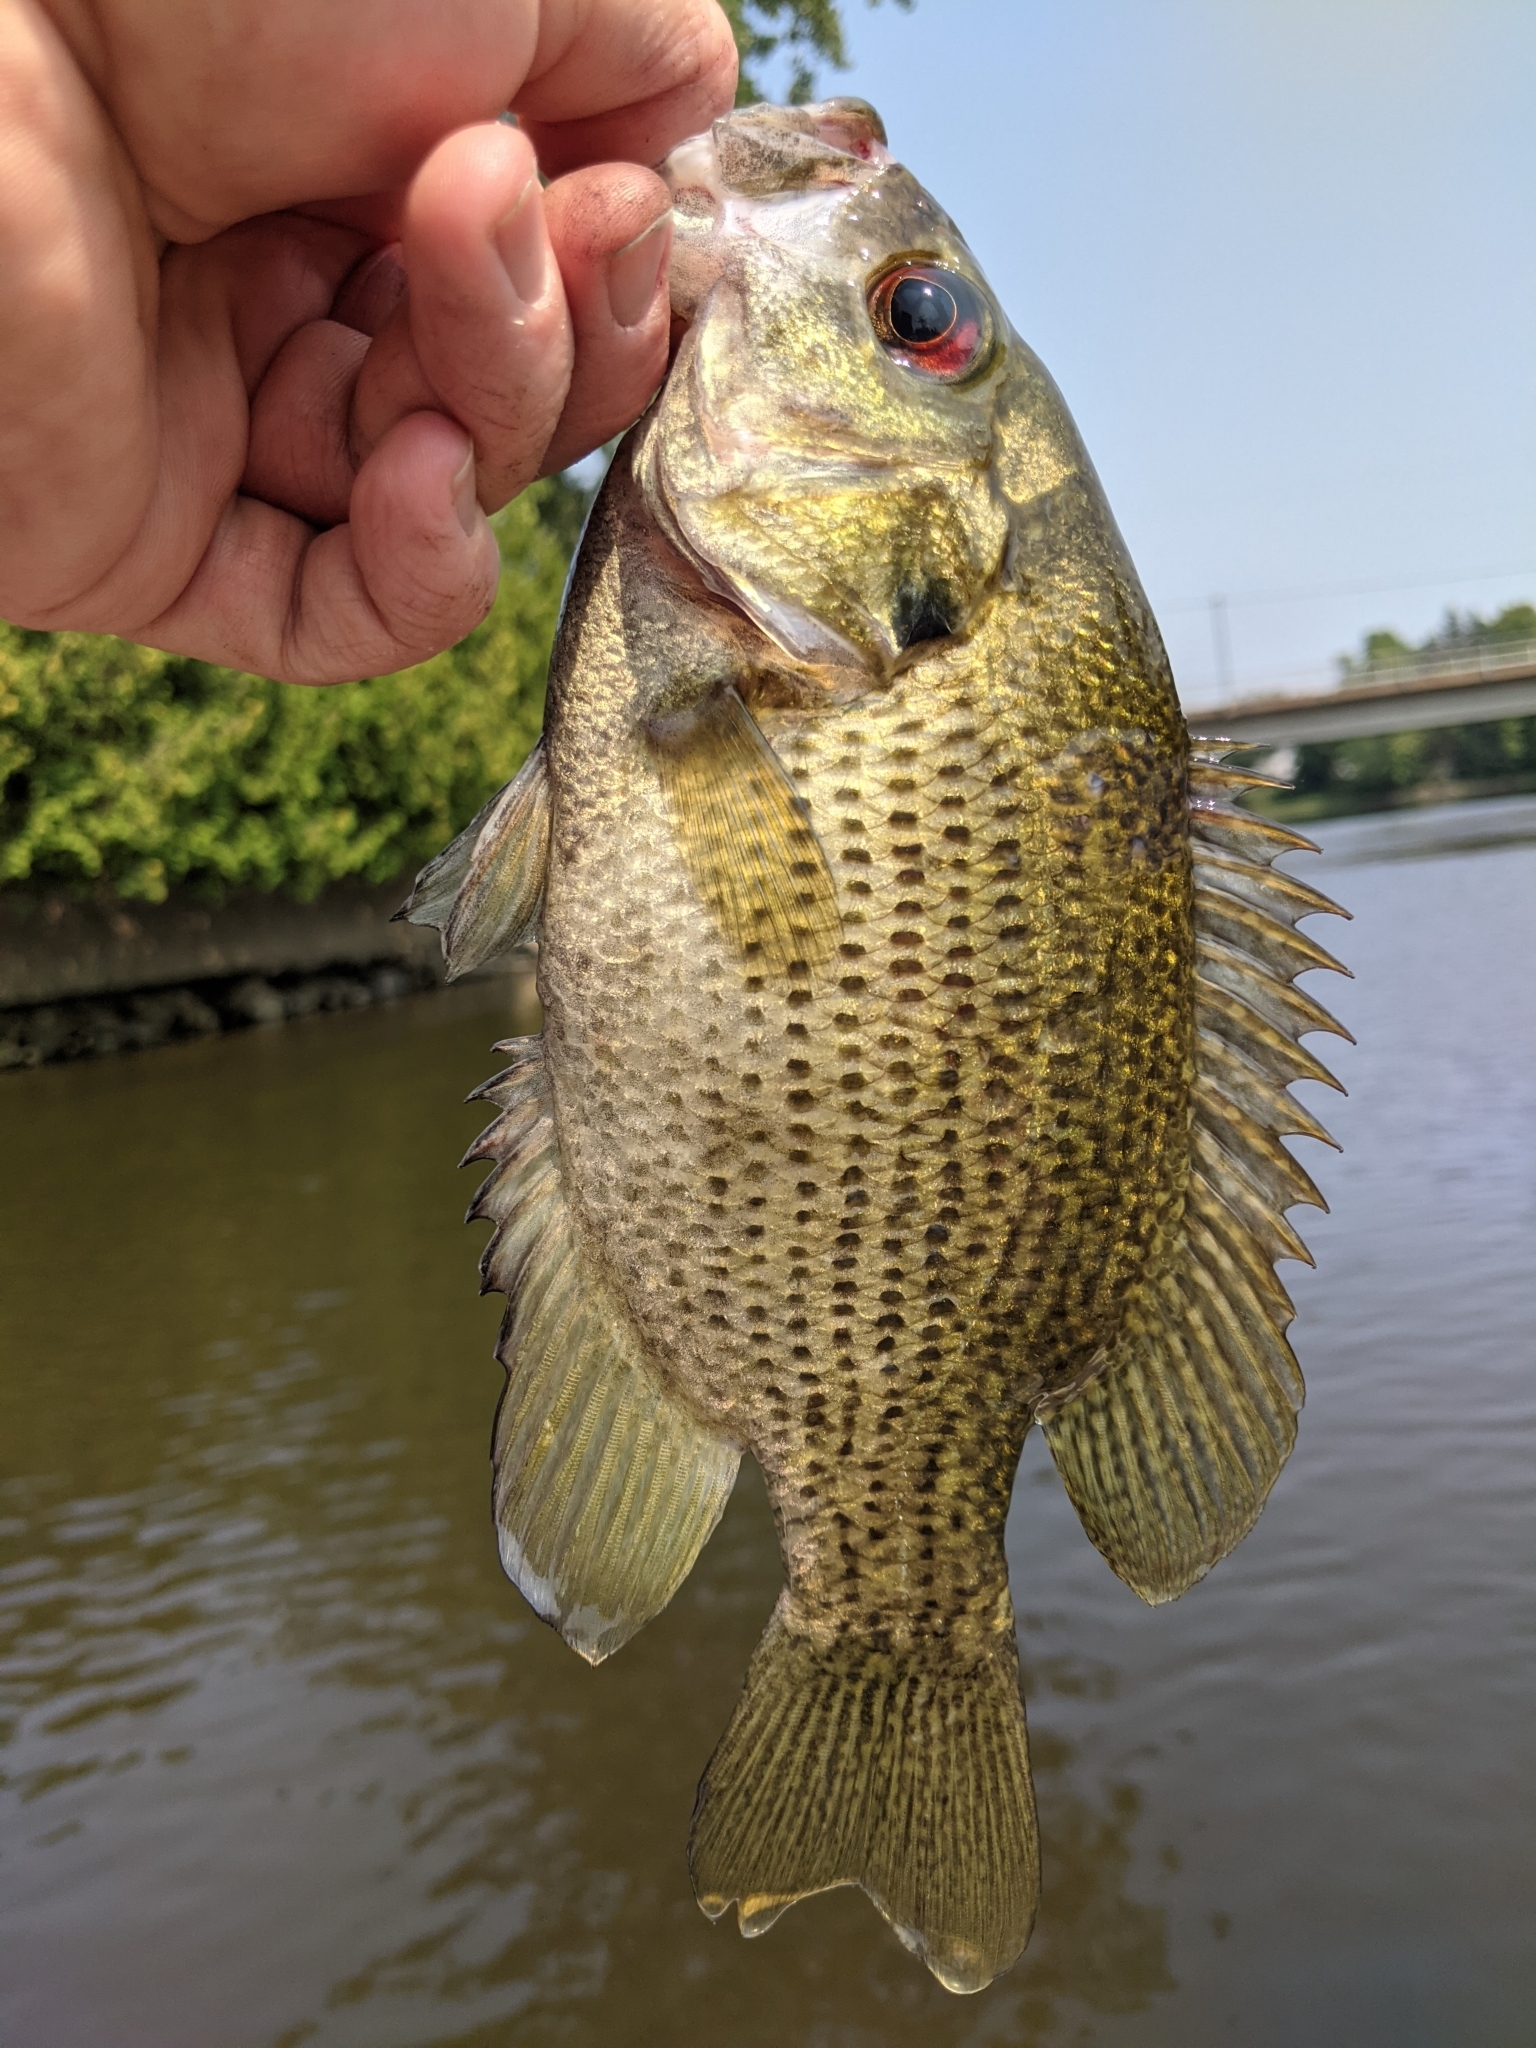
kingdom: Animalia
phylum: Chordata
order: Perciformes
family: Centrarchidae
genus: Ambloplites
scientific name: Ambloplites rupestris
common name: Rock bass
